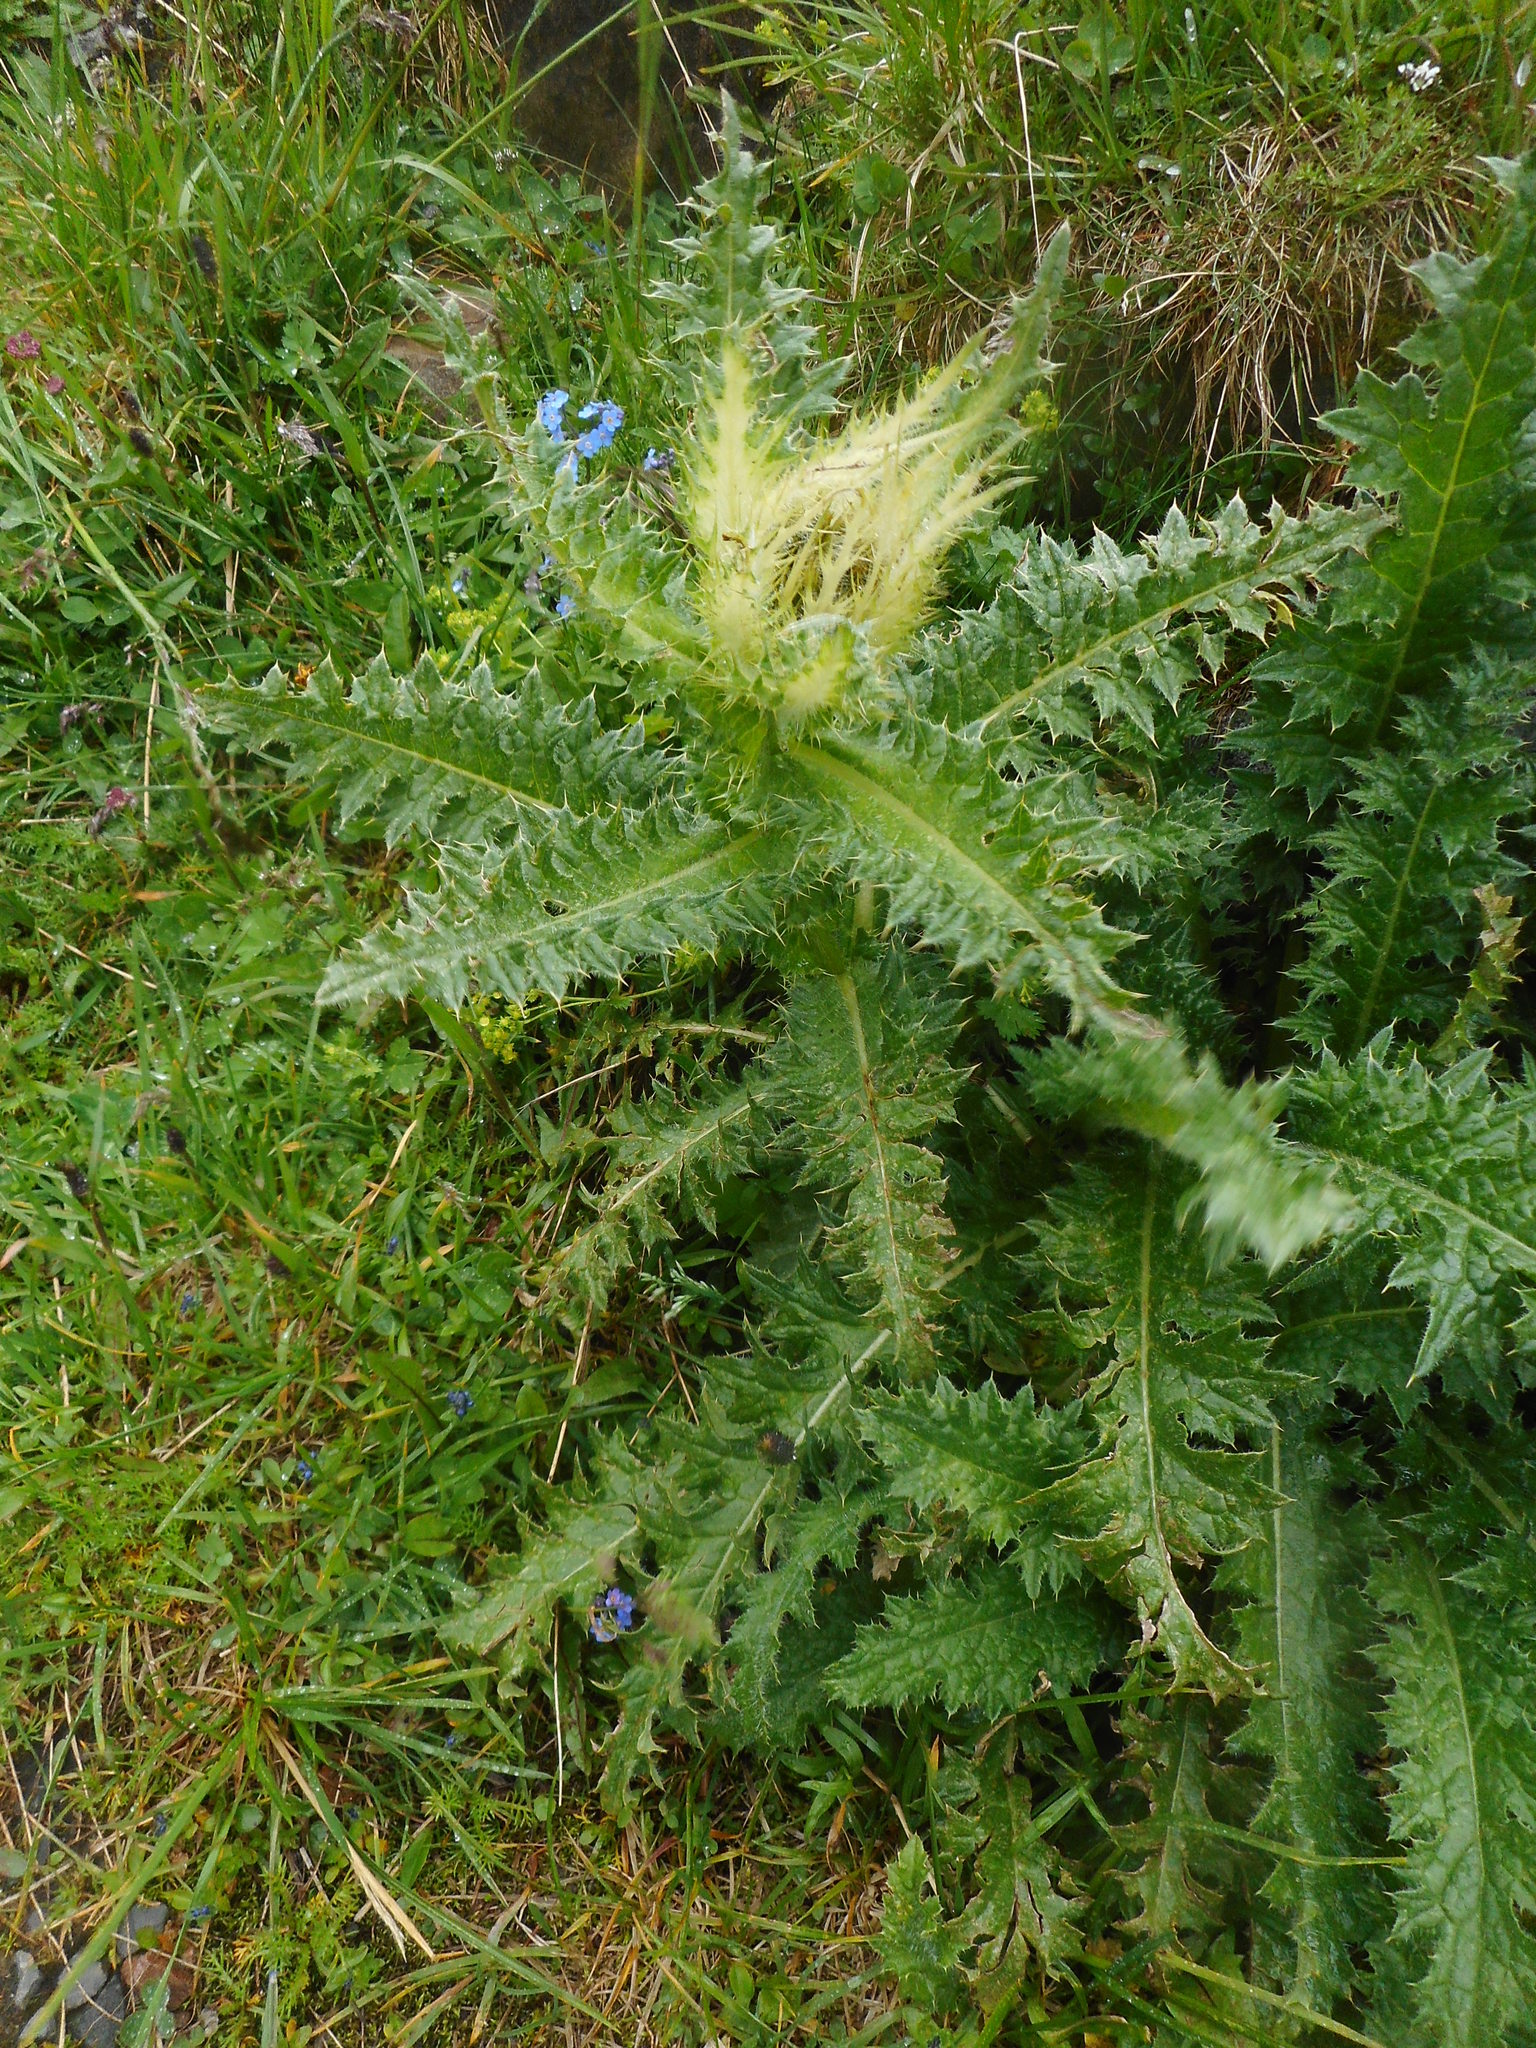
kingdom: Plantae
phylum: Tracheophyta
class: Magnoliopsida
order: Asterales
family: Asteraceae
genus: Cirsium
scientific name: Cirsium spinosissimum
